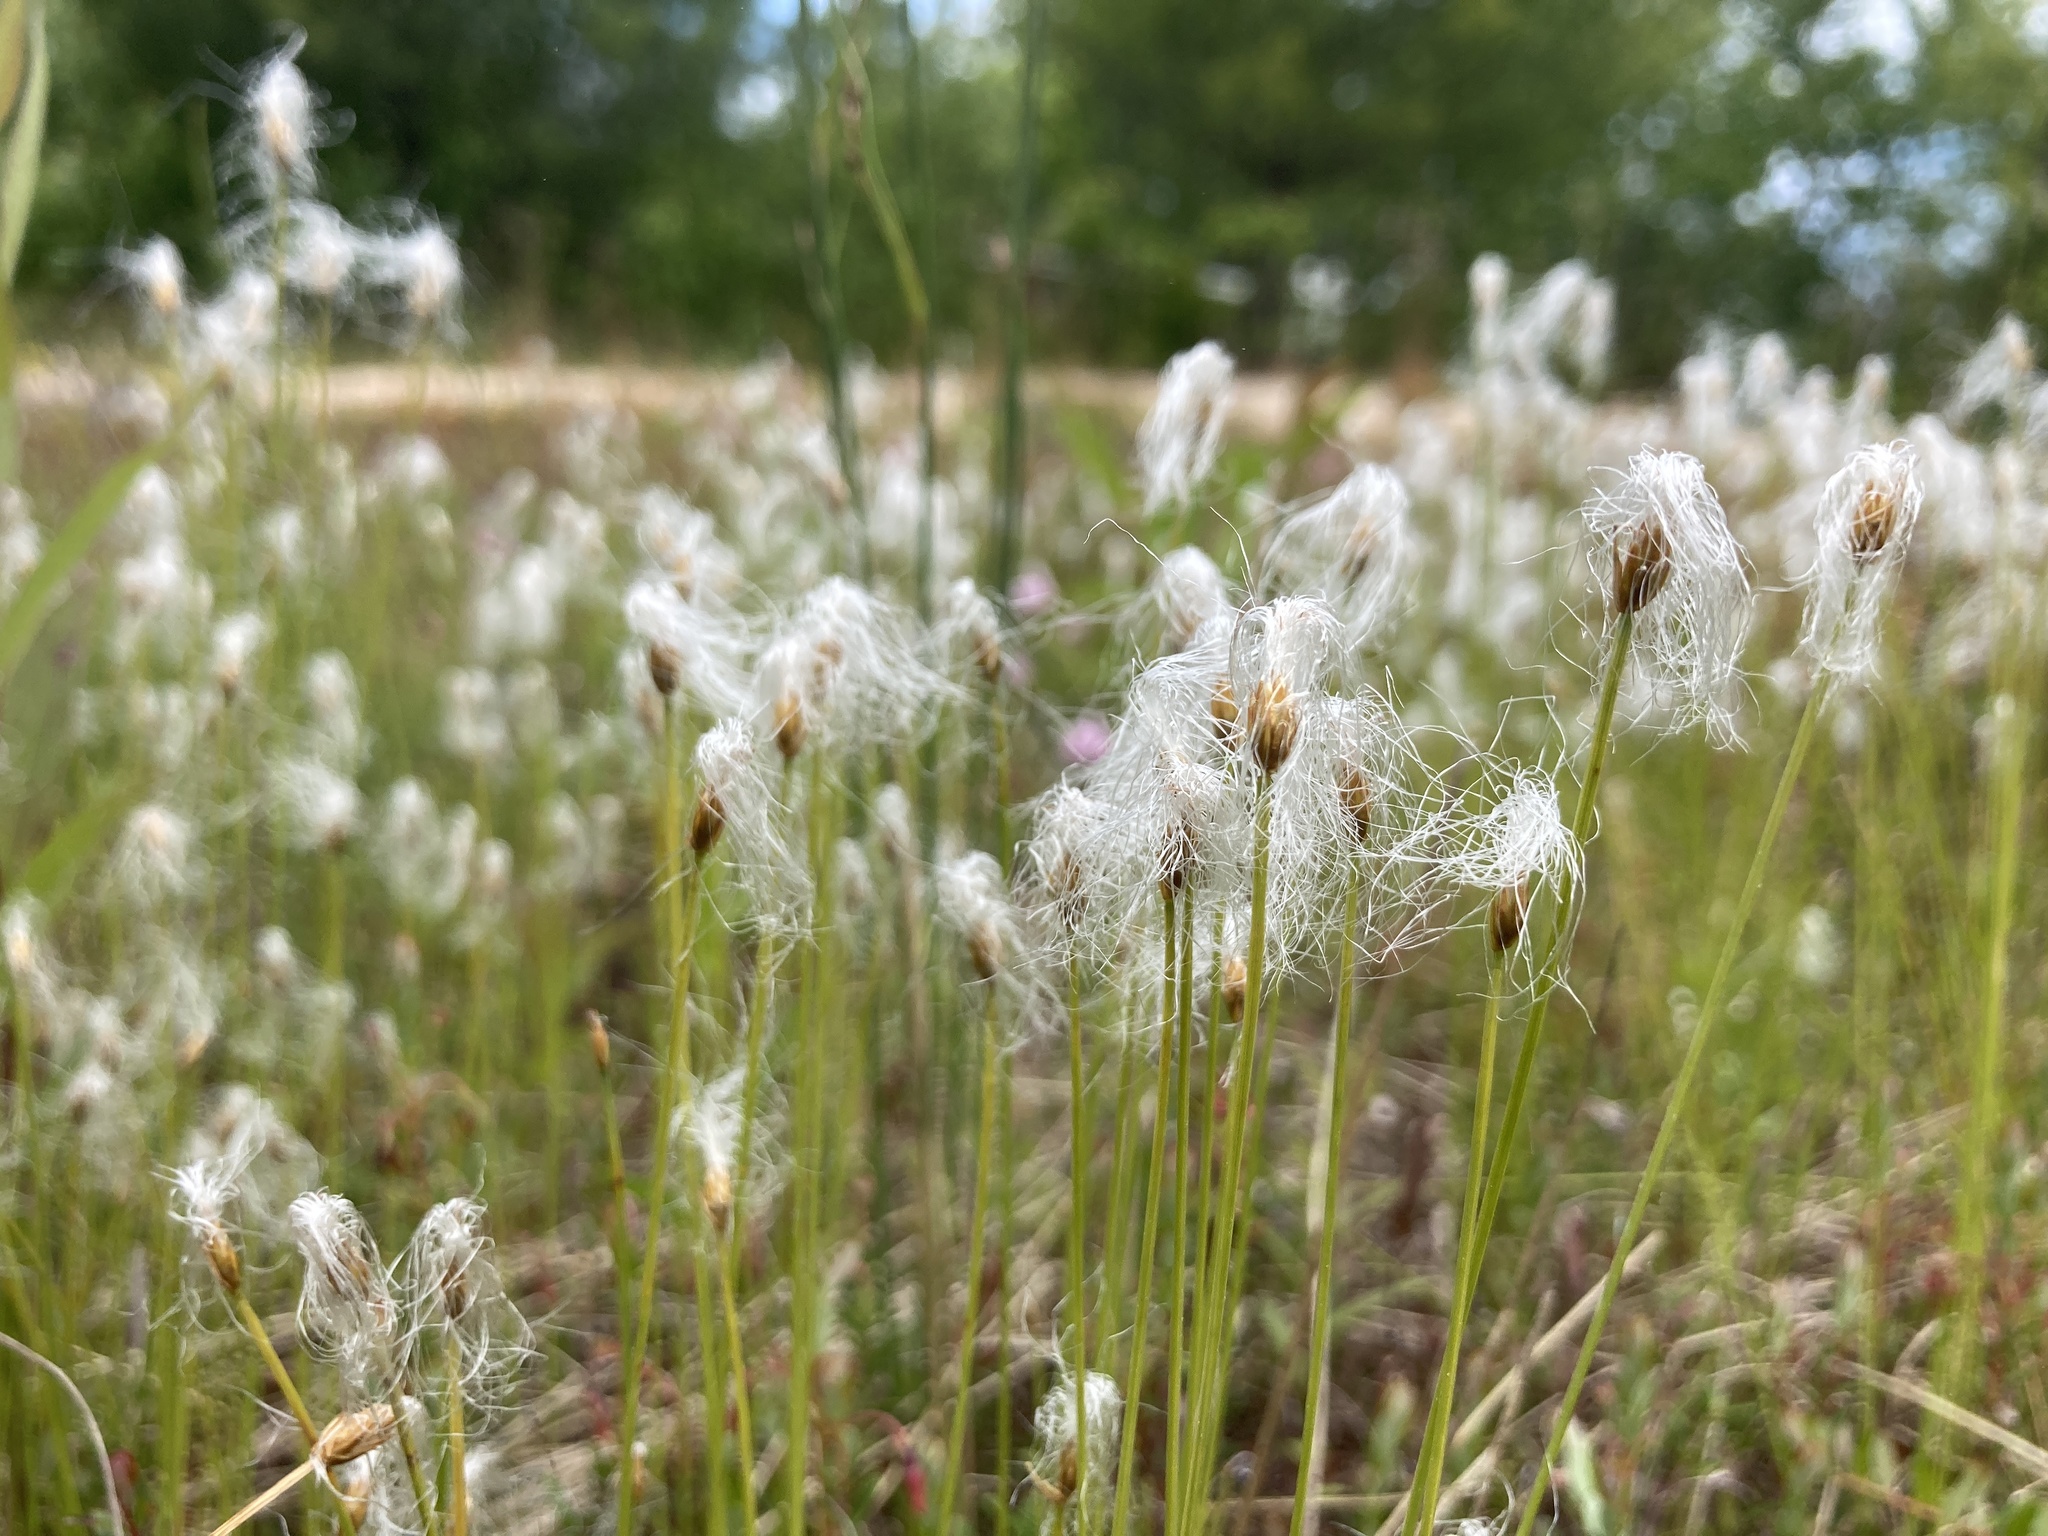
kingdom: Plantae
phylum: Tracheophyta
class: Liliopsida
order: Poales
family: Cyperaceae
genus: Trichophorum
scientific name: Trichophorum alpinum
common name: Alpine bulrush
